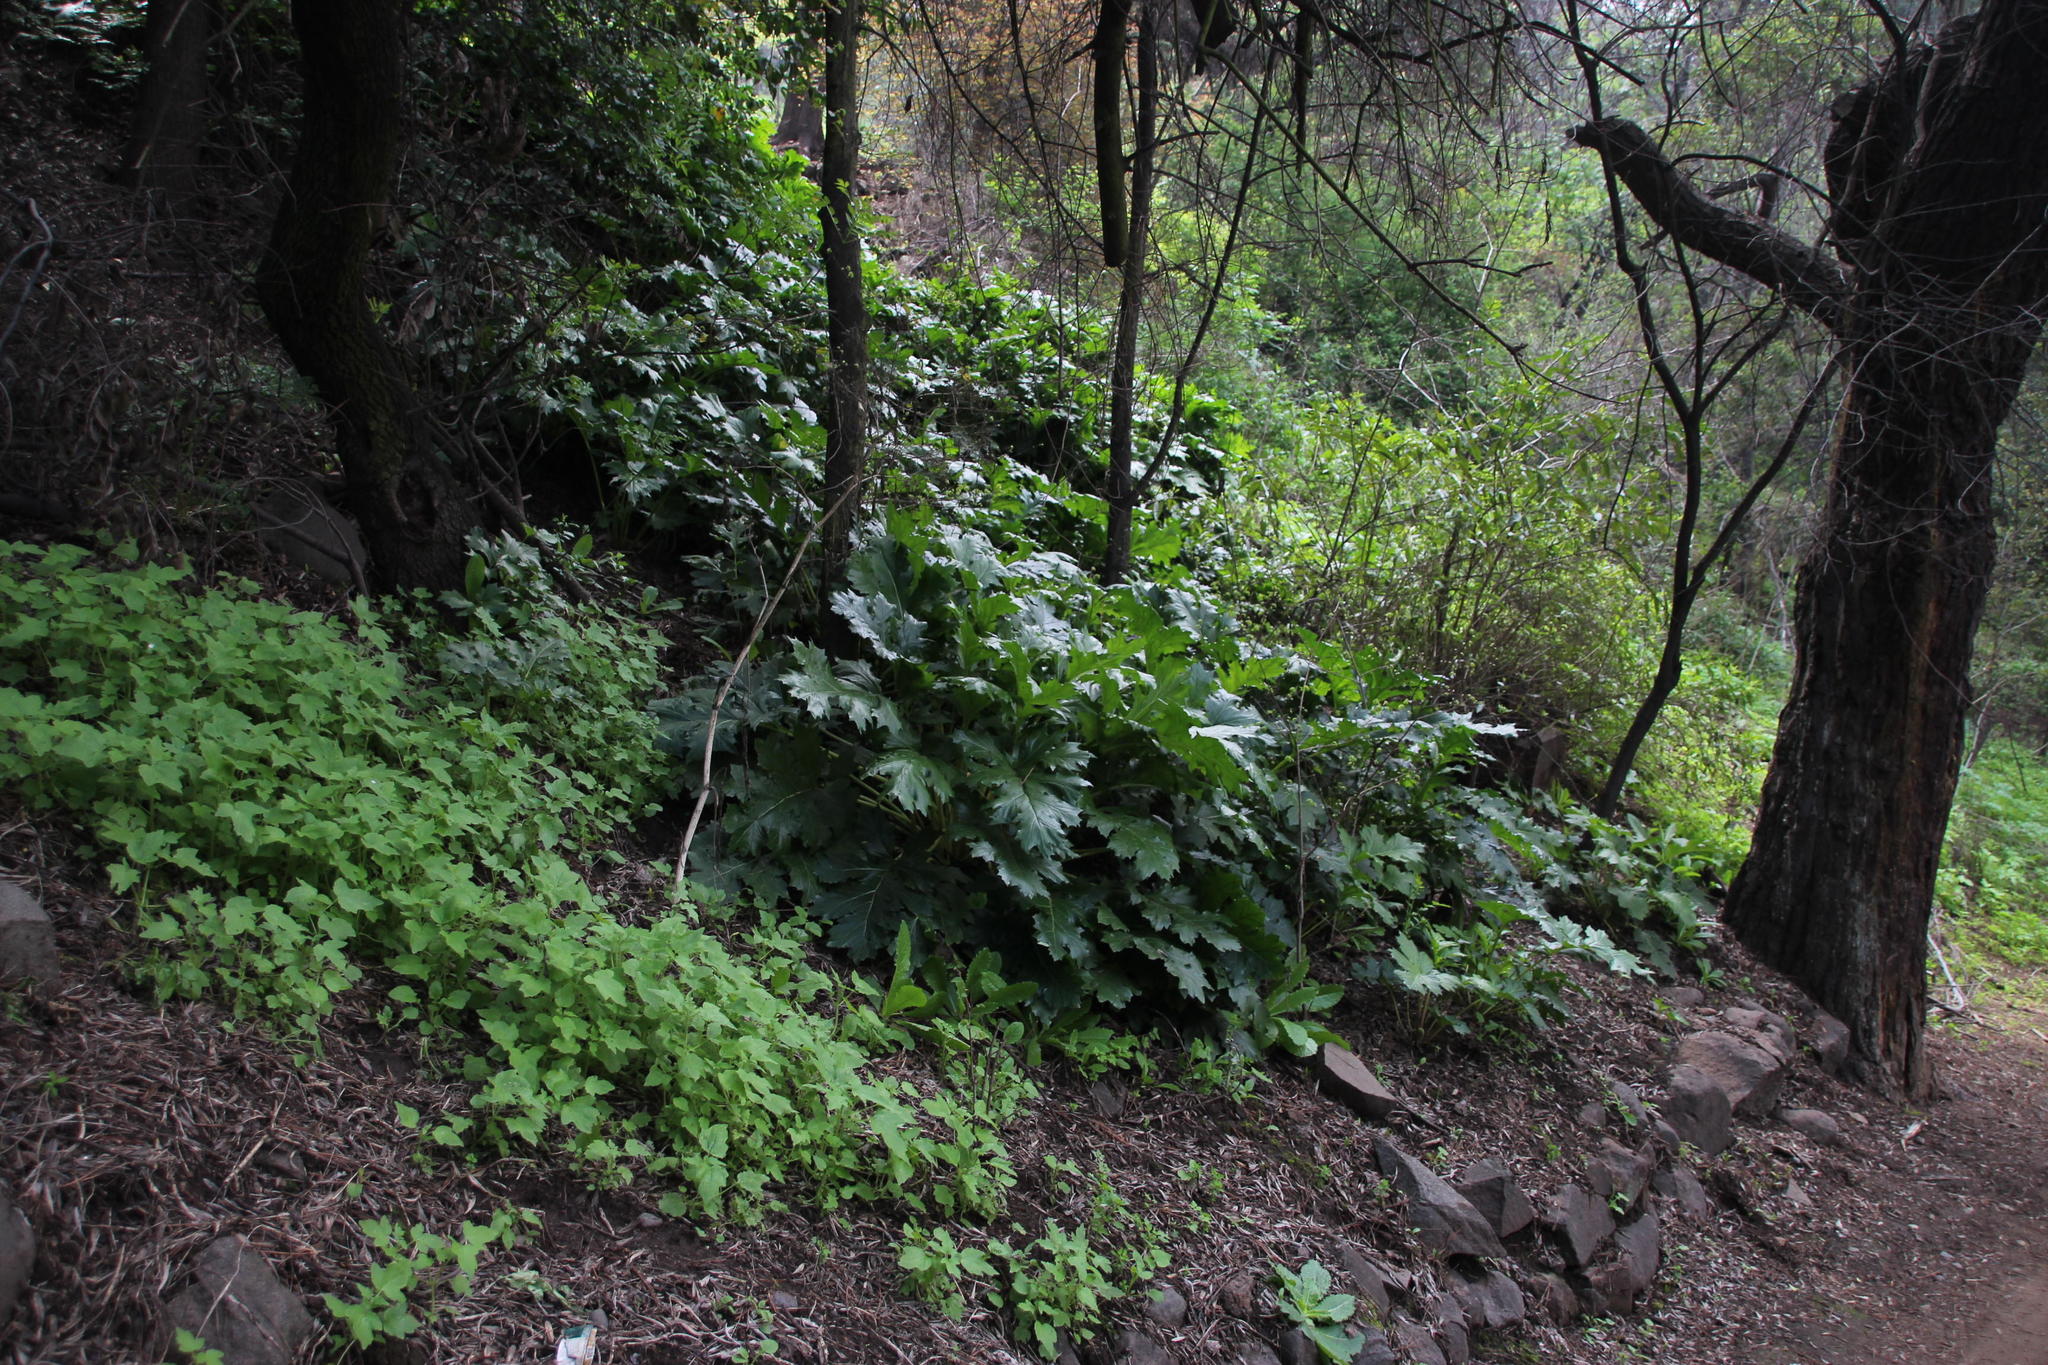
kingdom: Plantae
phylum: Tracheophyta
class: Magnoliopsida
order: Lamiales
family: Acanthaceae
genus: Acanthus
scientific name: Acanthus mollis
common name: Bear's-breech
